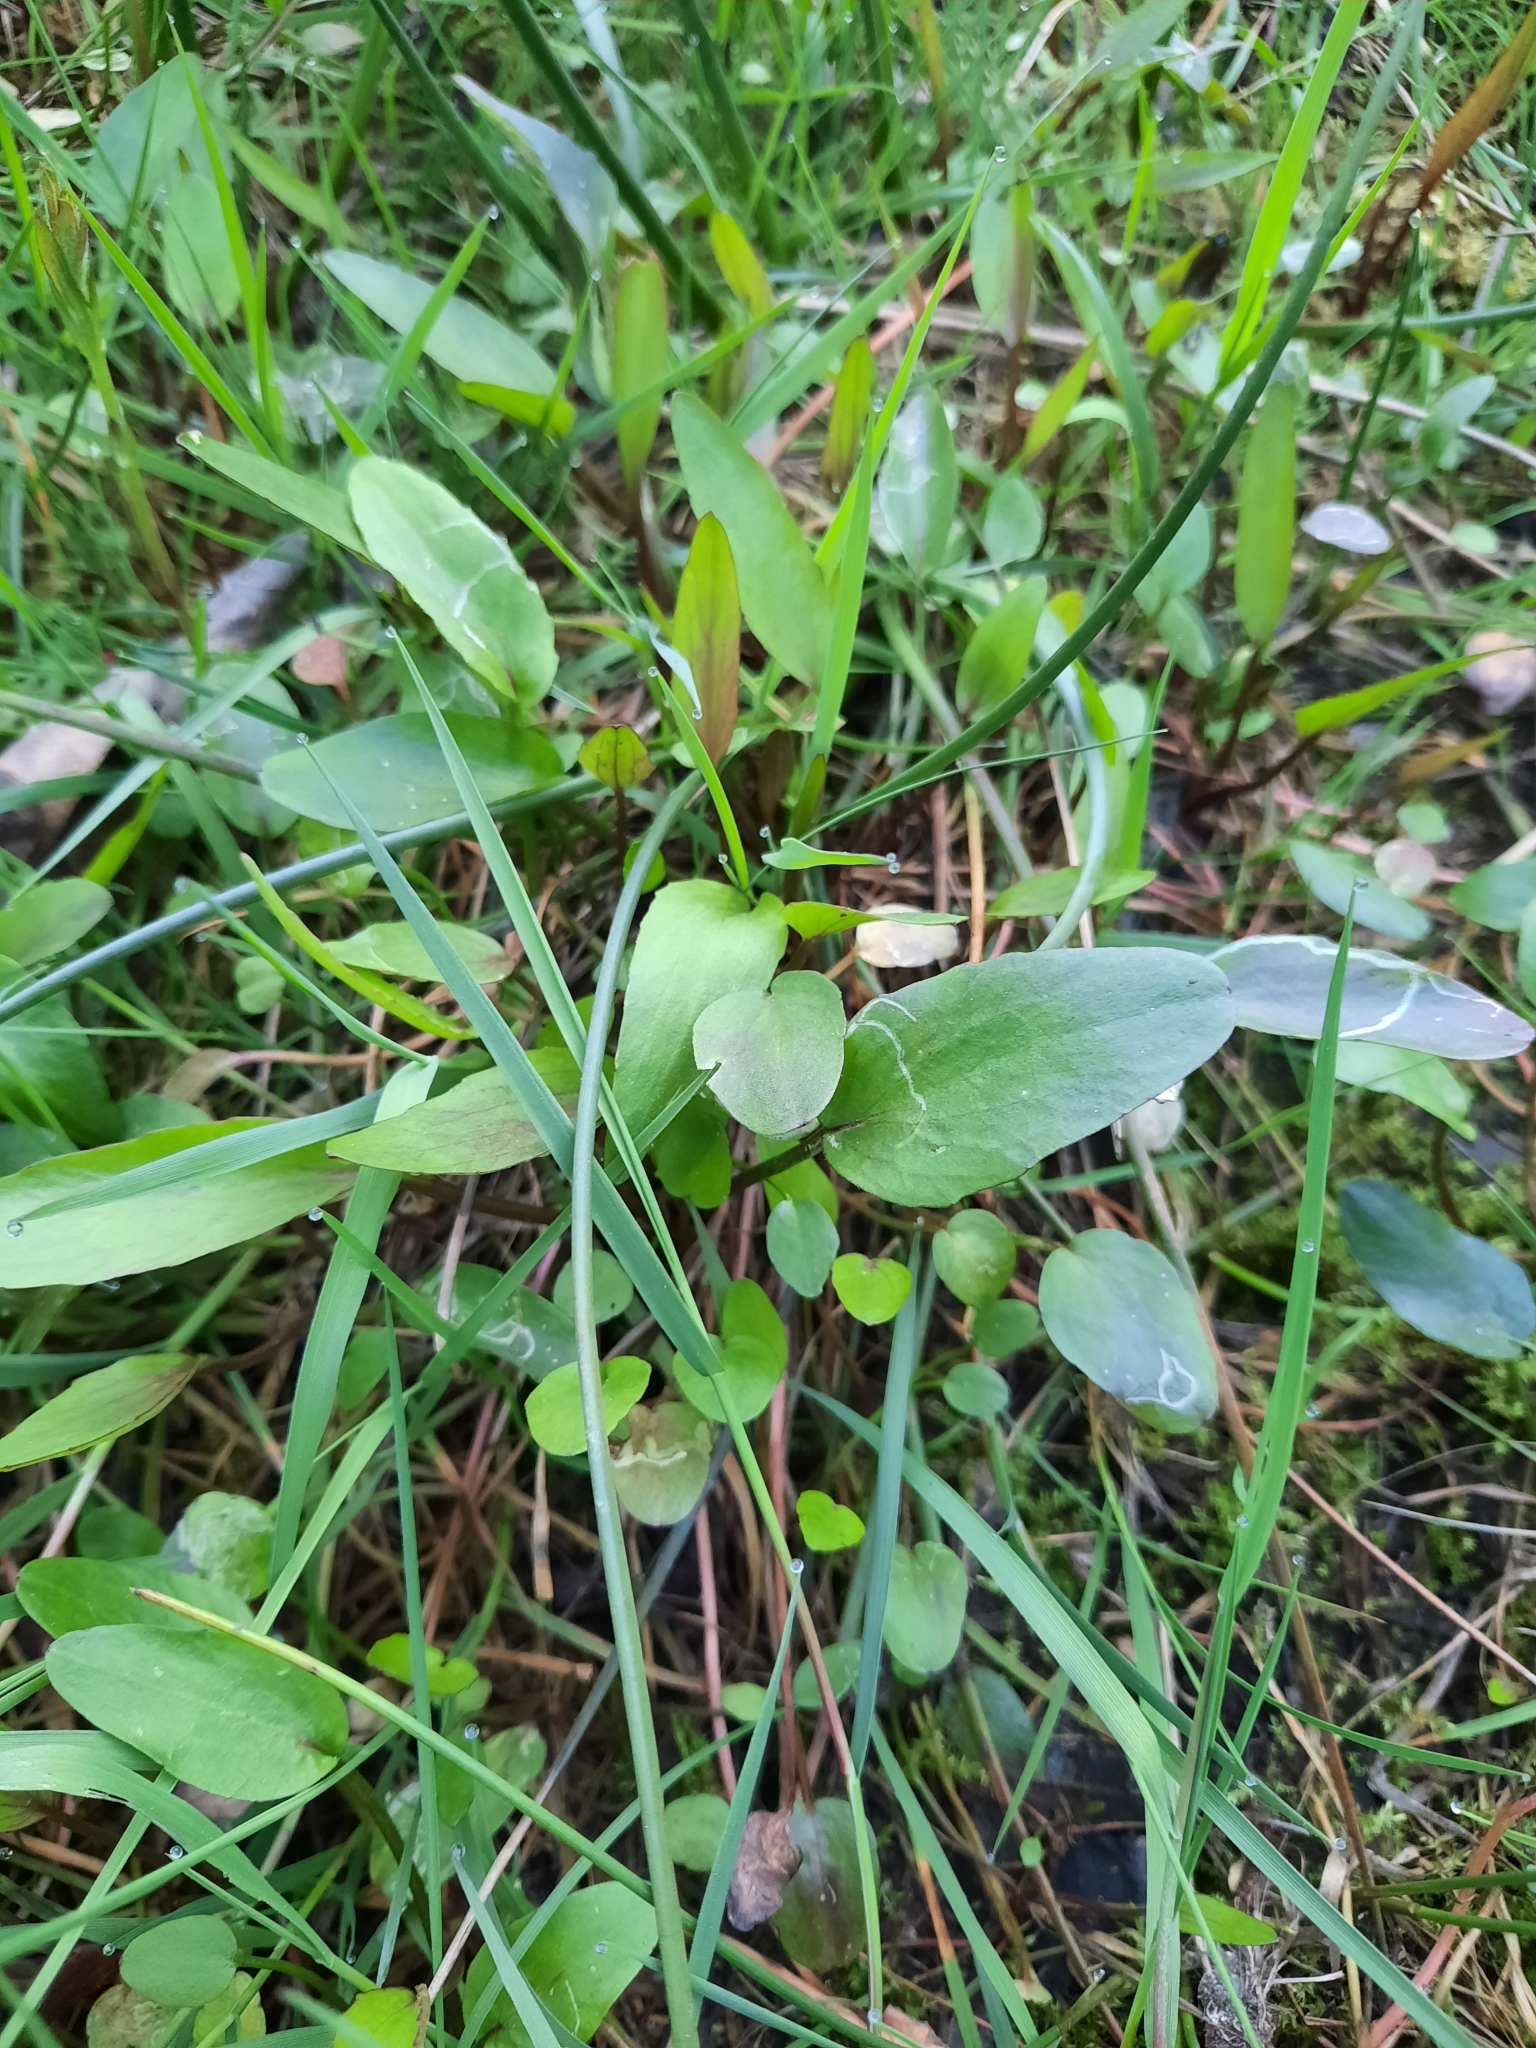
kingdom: Plantae
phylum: Tracheophyta
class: Magnoliopsida
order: Ranunculales
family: Ranunculaceae
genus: Ranunculus
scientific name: Ranunculus flammula
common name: Lesser spearwort
